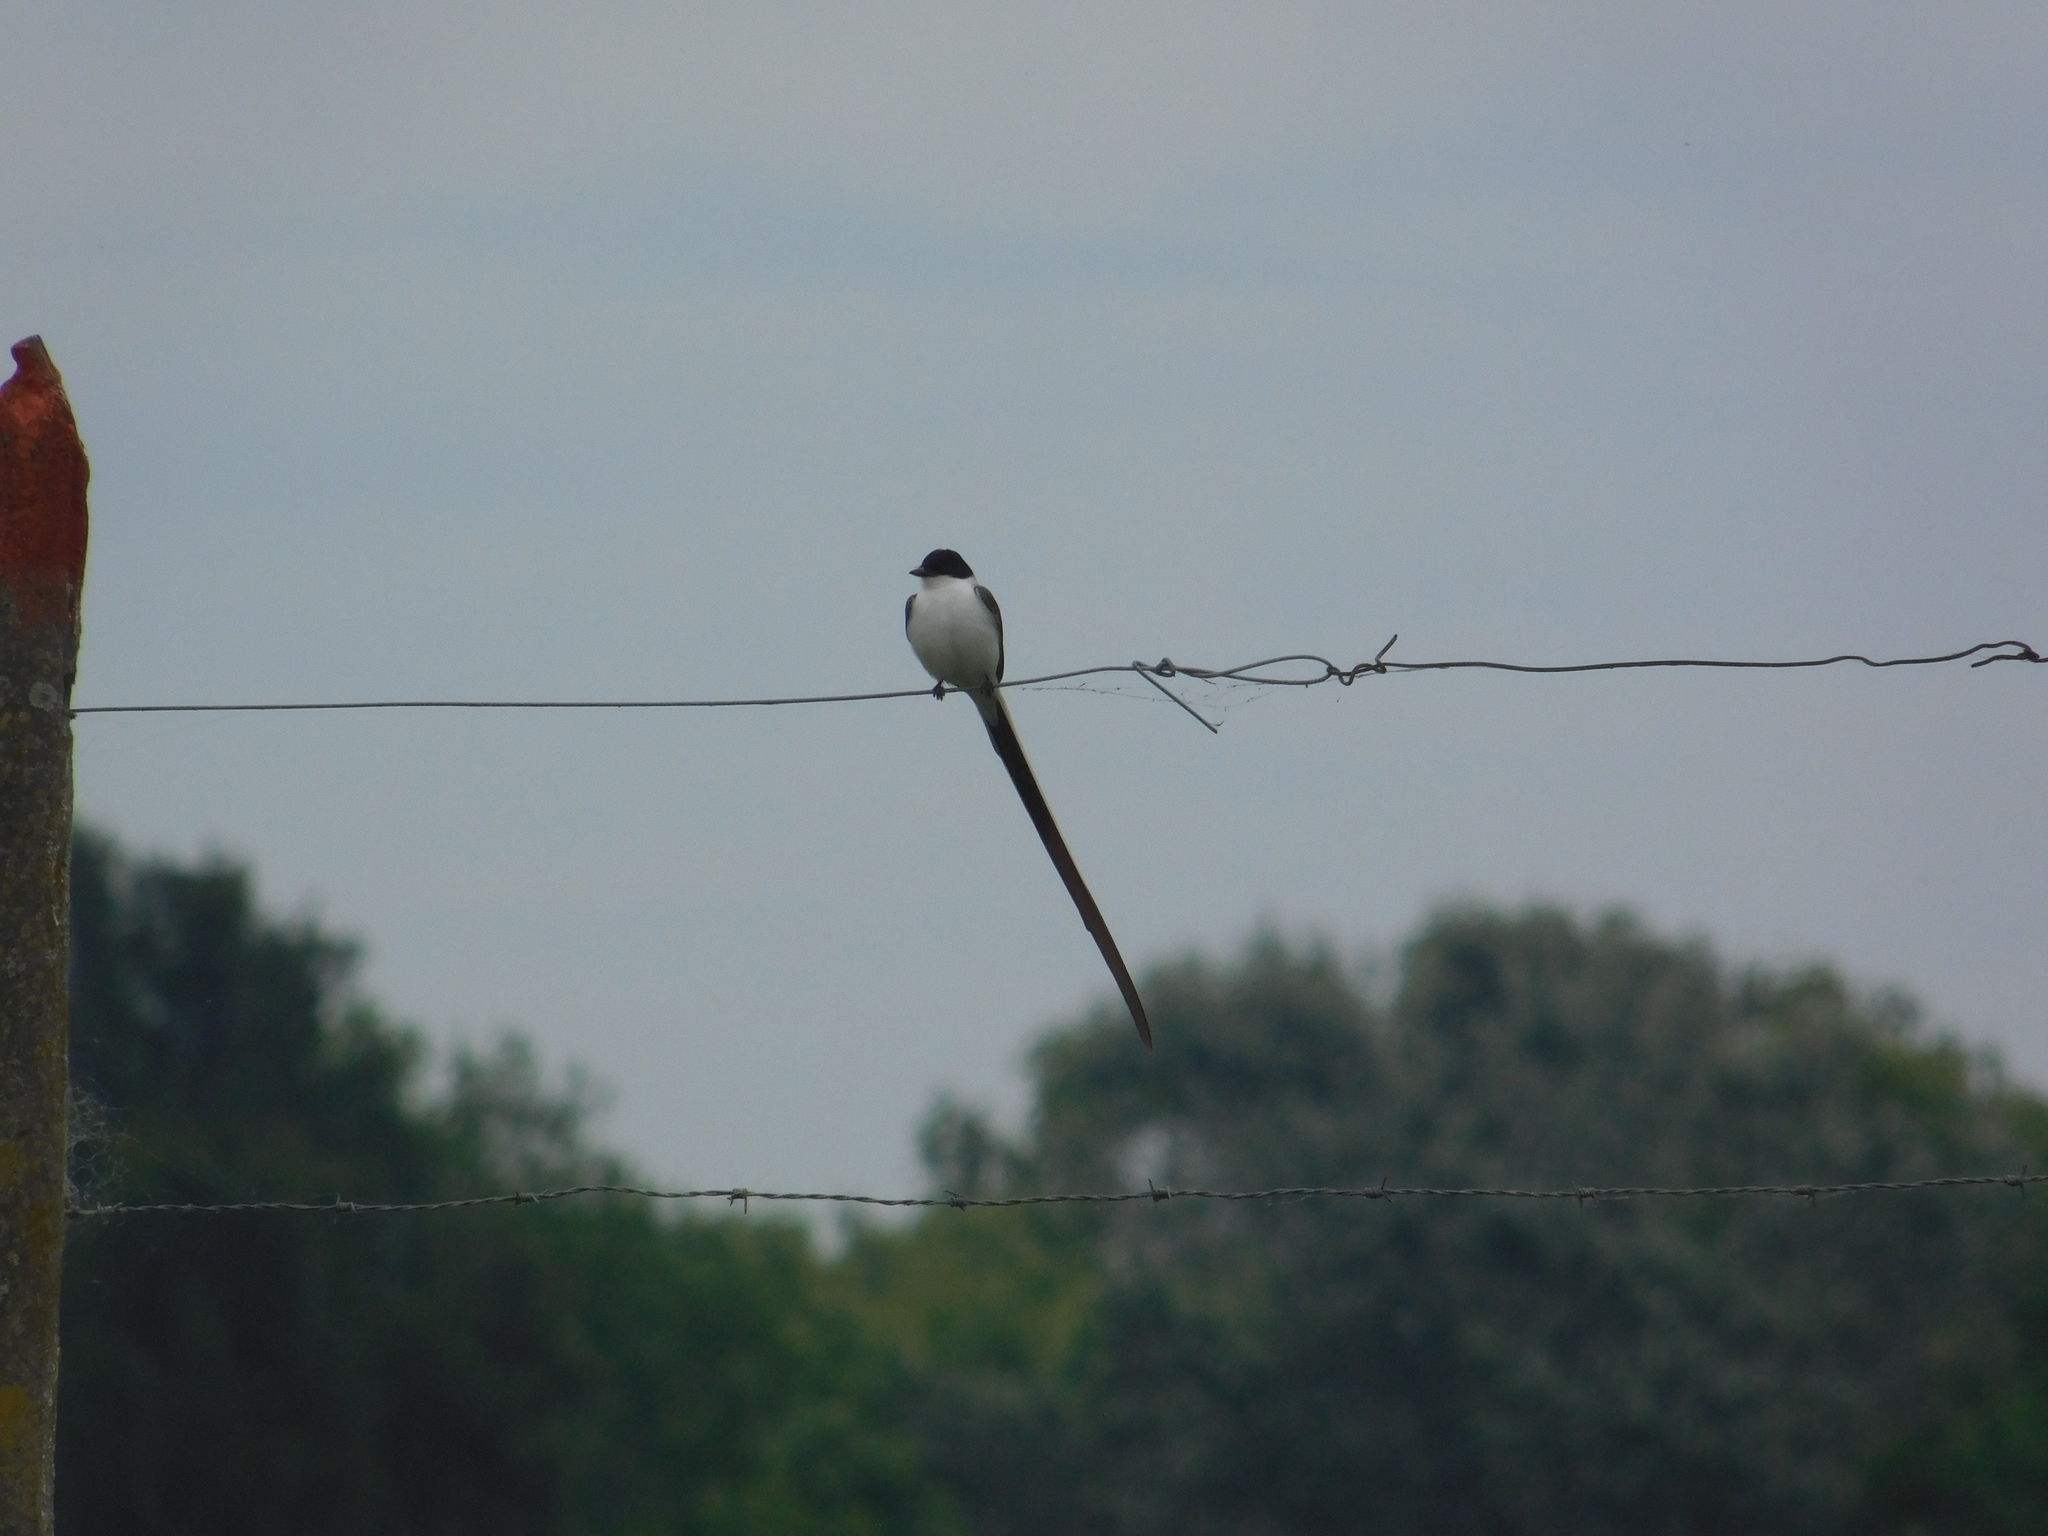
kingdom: Animalia
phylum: Chordata
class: Aves
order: Passeriformes
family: Tyrannidae
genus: Tyrannus
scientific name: Tyrannus savana
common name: Fork-tailed flycatcher
